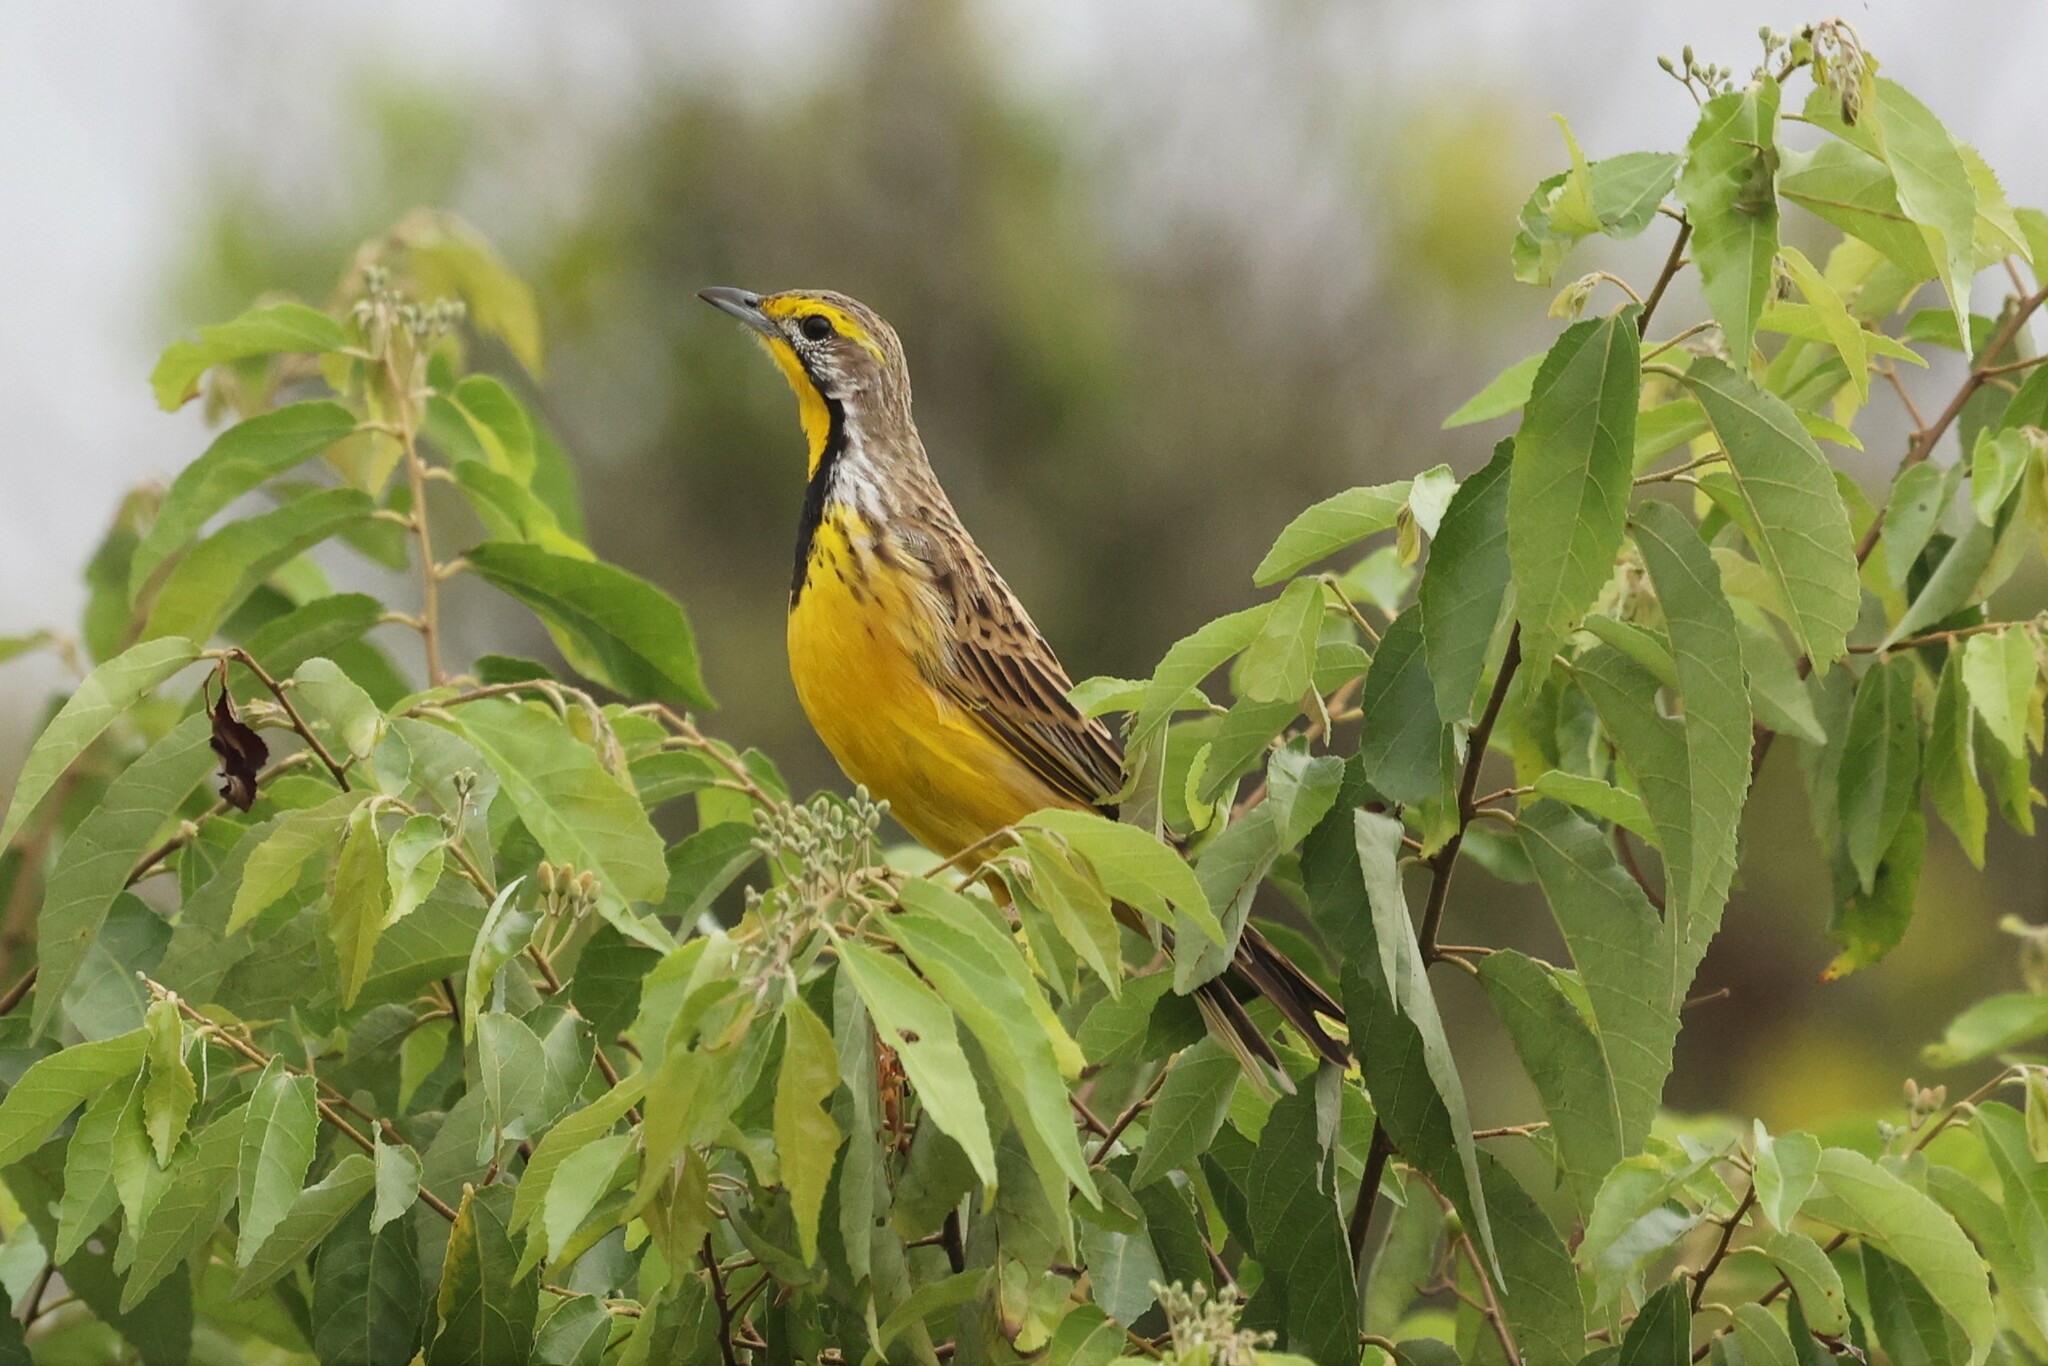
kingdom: Animalia
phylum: Chordata
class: Aves
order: Passeriformes
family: Motacillidae
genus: Macronyx
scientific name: Macronyx croceus
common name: Yellow-throated longclaw
